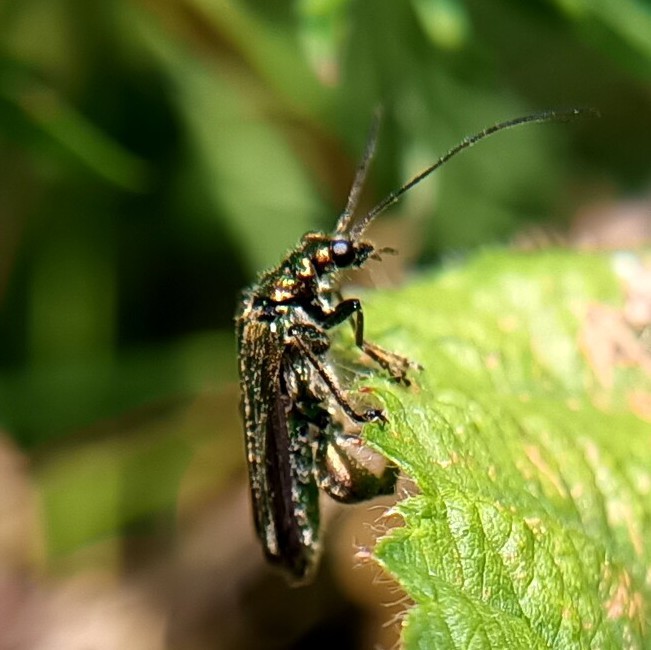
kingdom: Animalia
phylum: Arthropoda
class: Insecta
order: Coleoptera
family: Oedemeridae
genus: Oedemera
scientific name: Oedemera nobilis
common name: Swollen-thighed beetle
